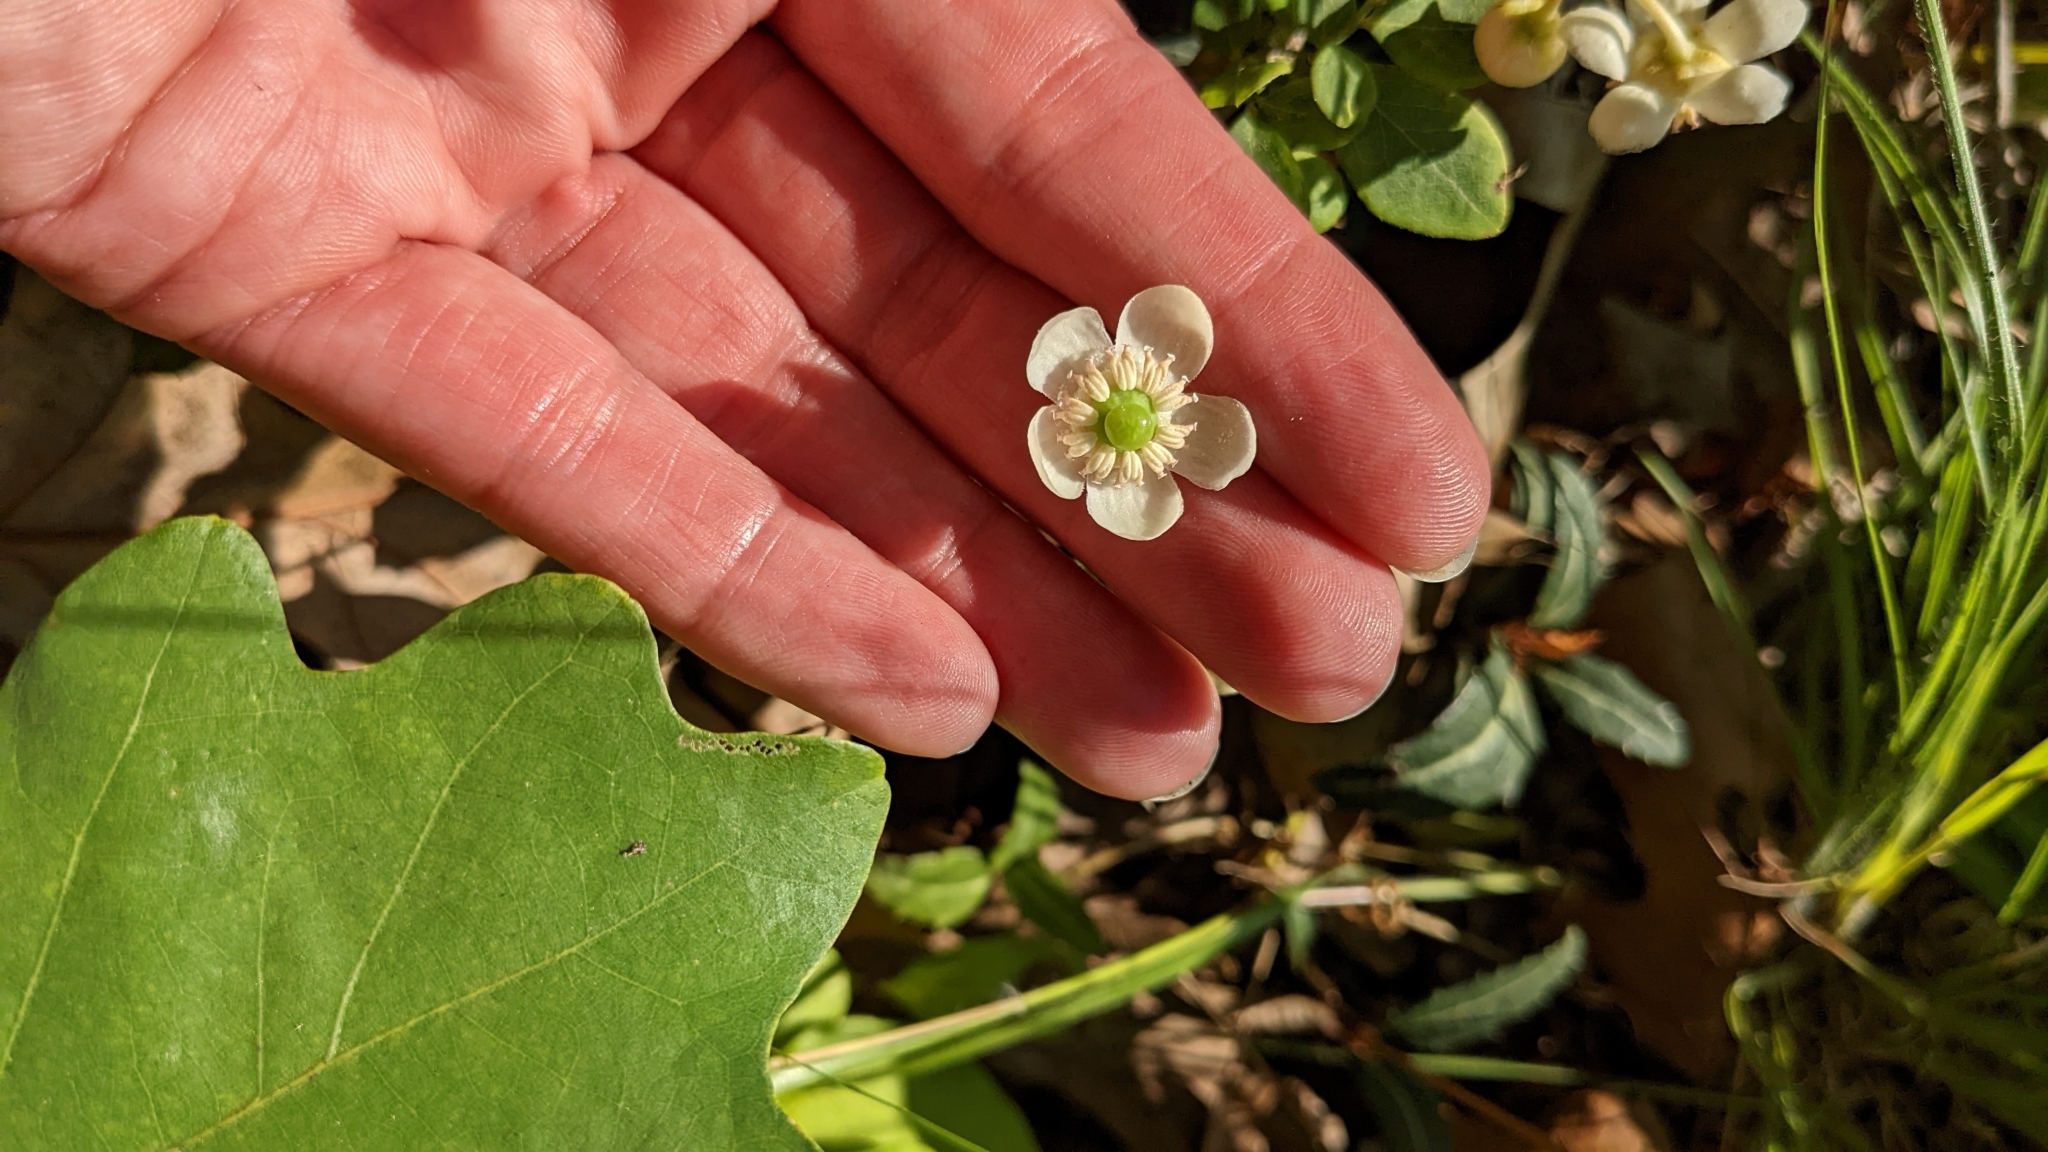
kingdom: Plantae
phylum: Tracheophyta
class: Magnoliopsida
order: Ericales
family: Ericaceae
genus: Chimaphila
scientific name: Chimaphila maculata
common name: Spotted pipsissewa
